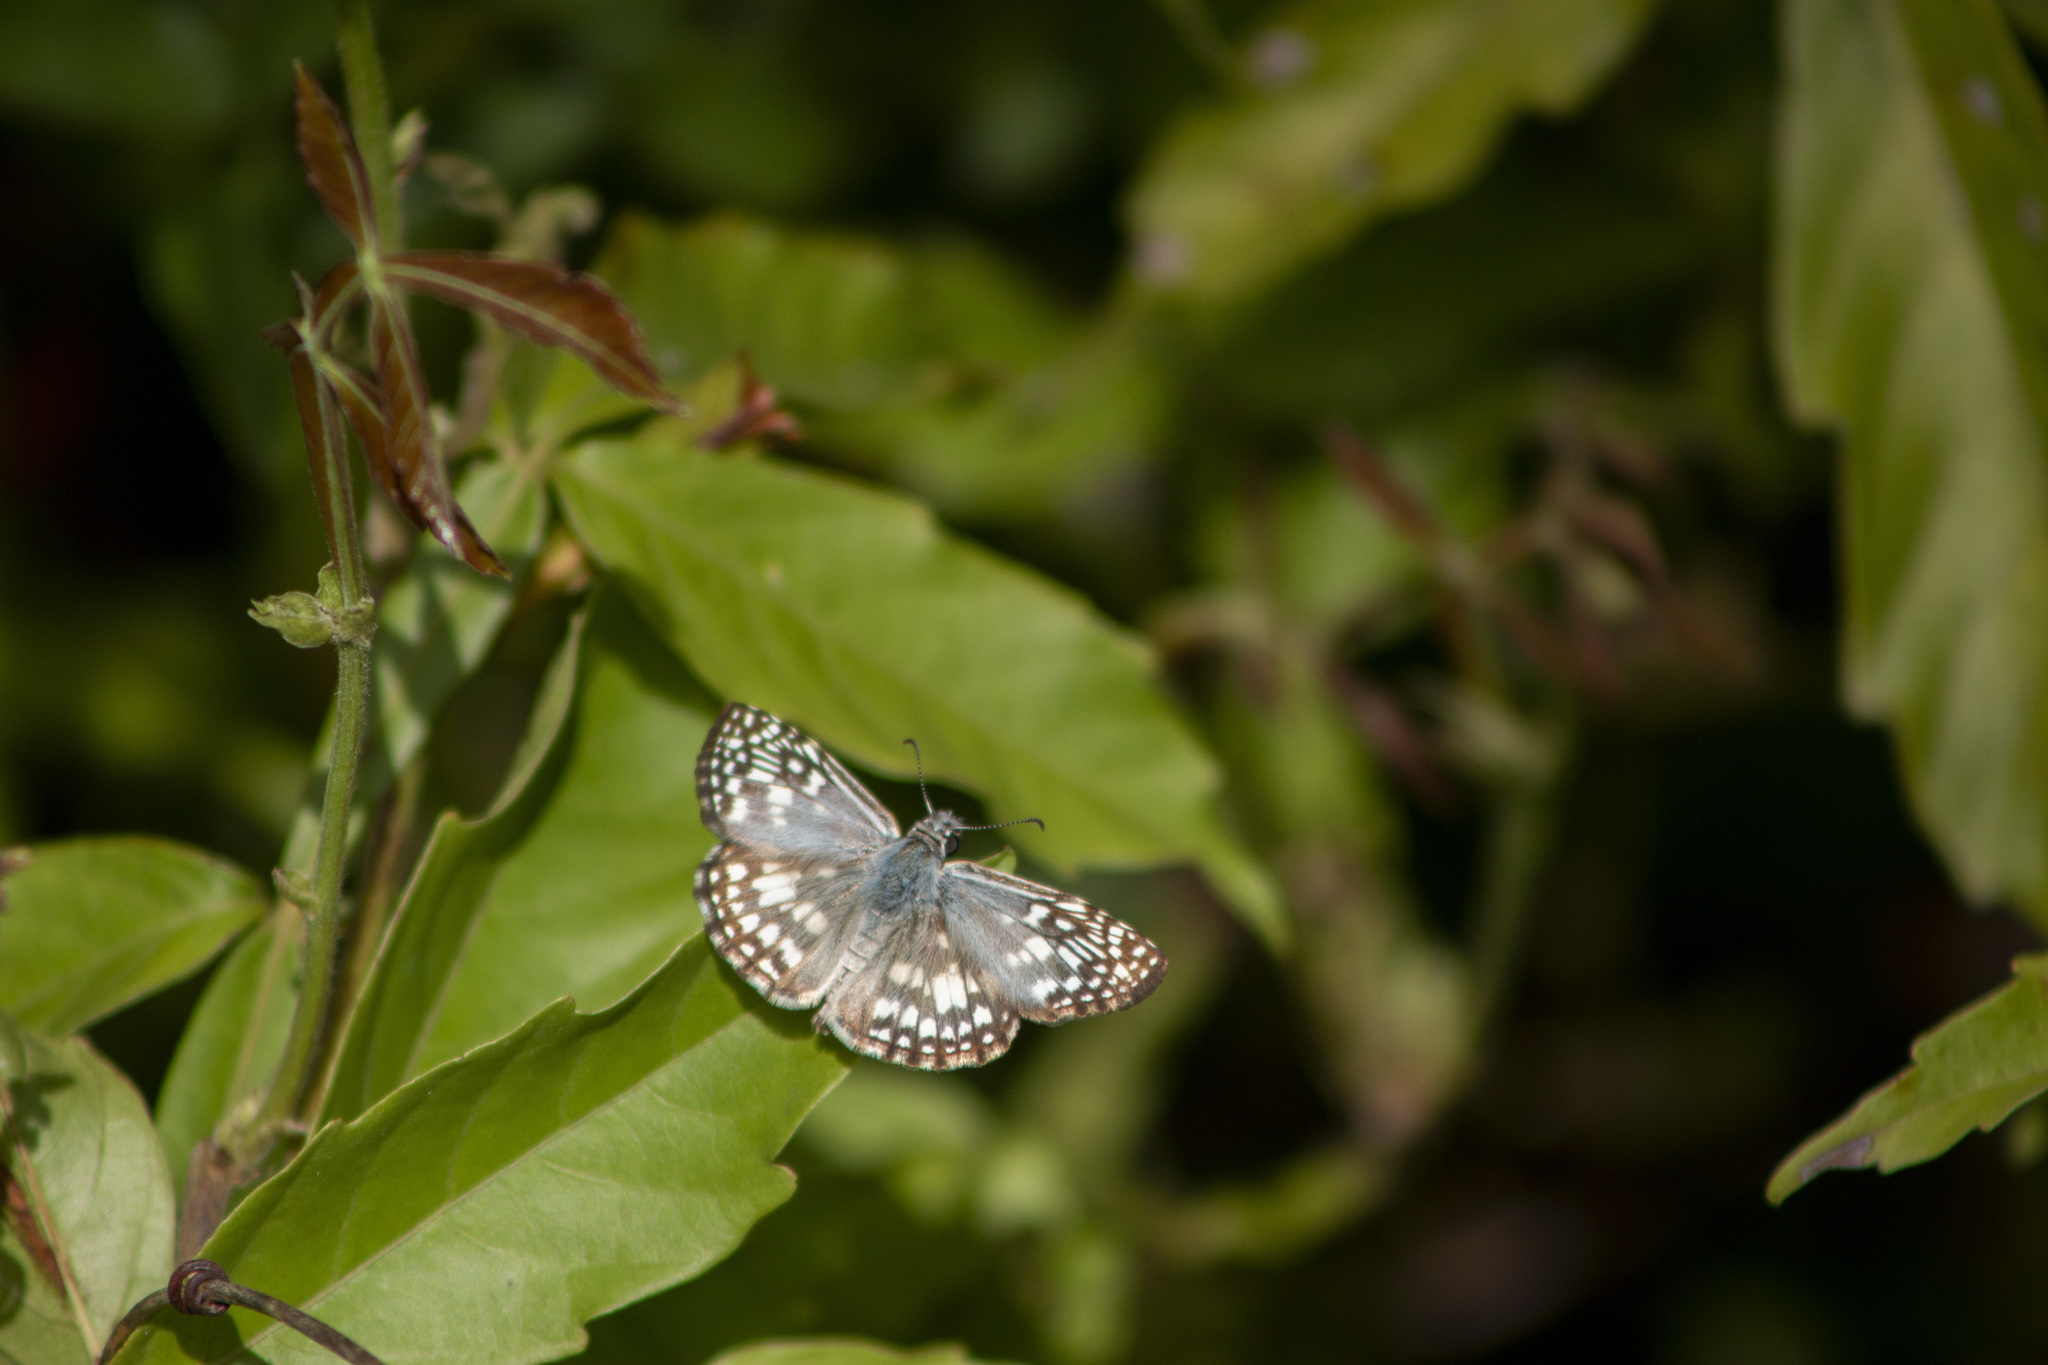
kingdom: Animalia
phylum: Arthropoda
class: Insecta
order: Lepidoptera
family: Hesperiidae
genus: Pyrgus
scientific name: Pyrgus oileus
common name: Tropical checkered-skipper
